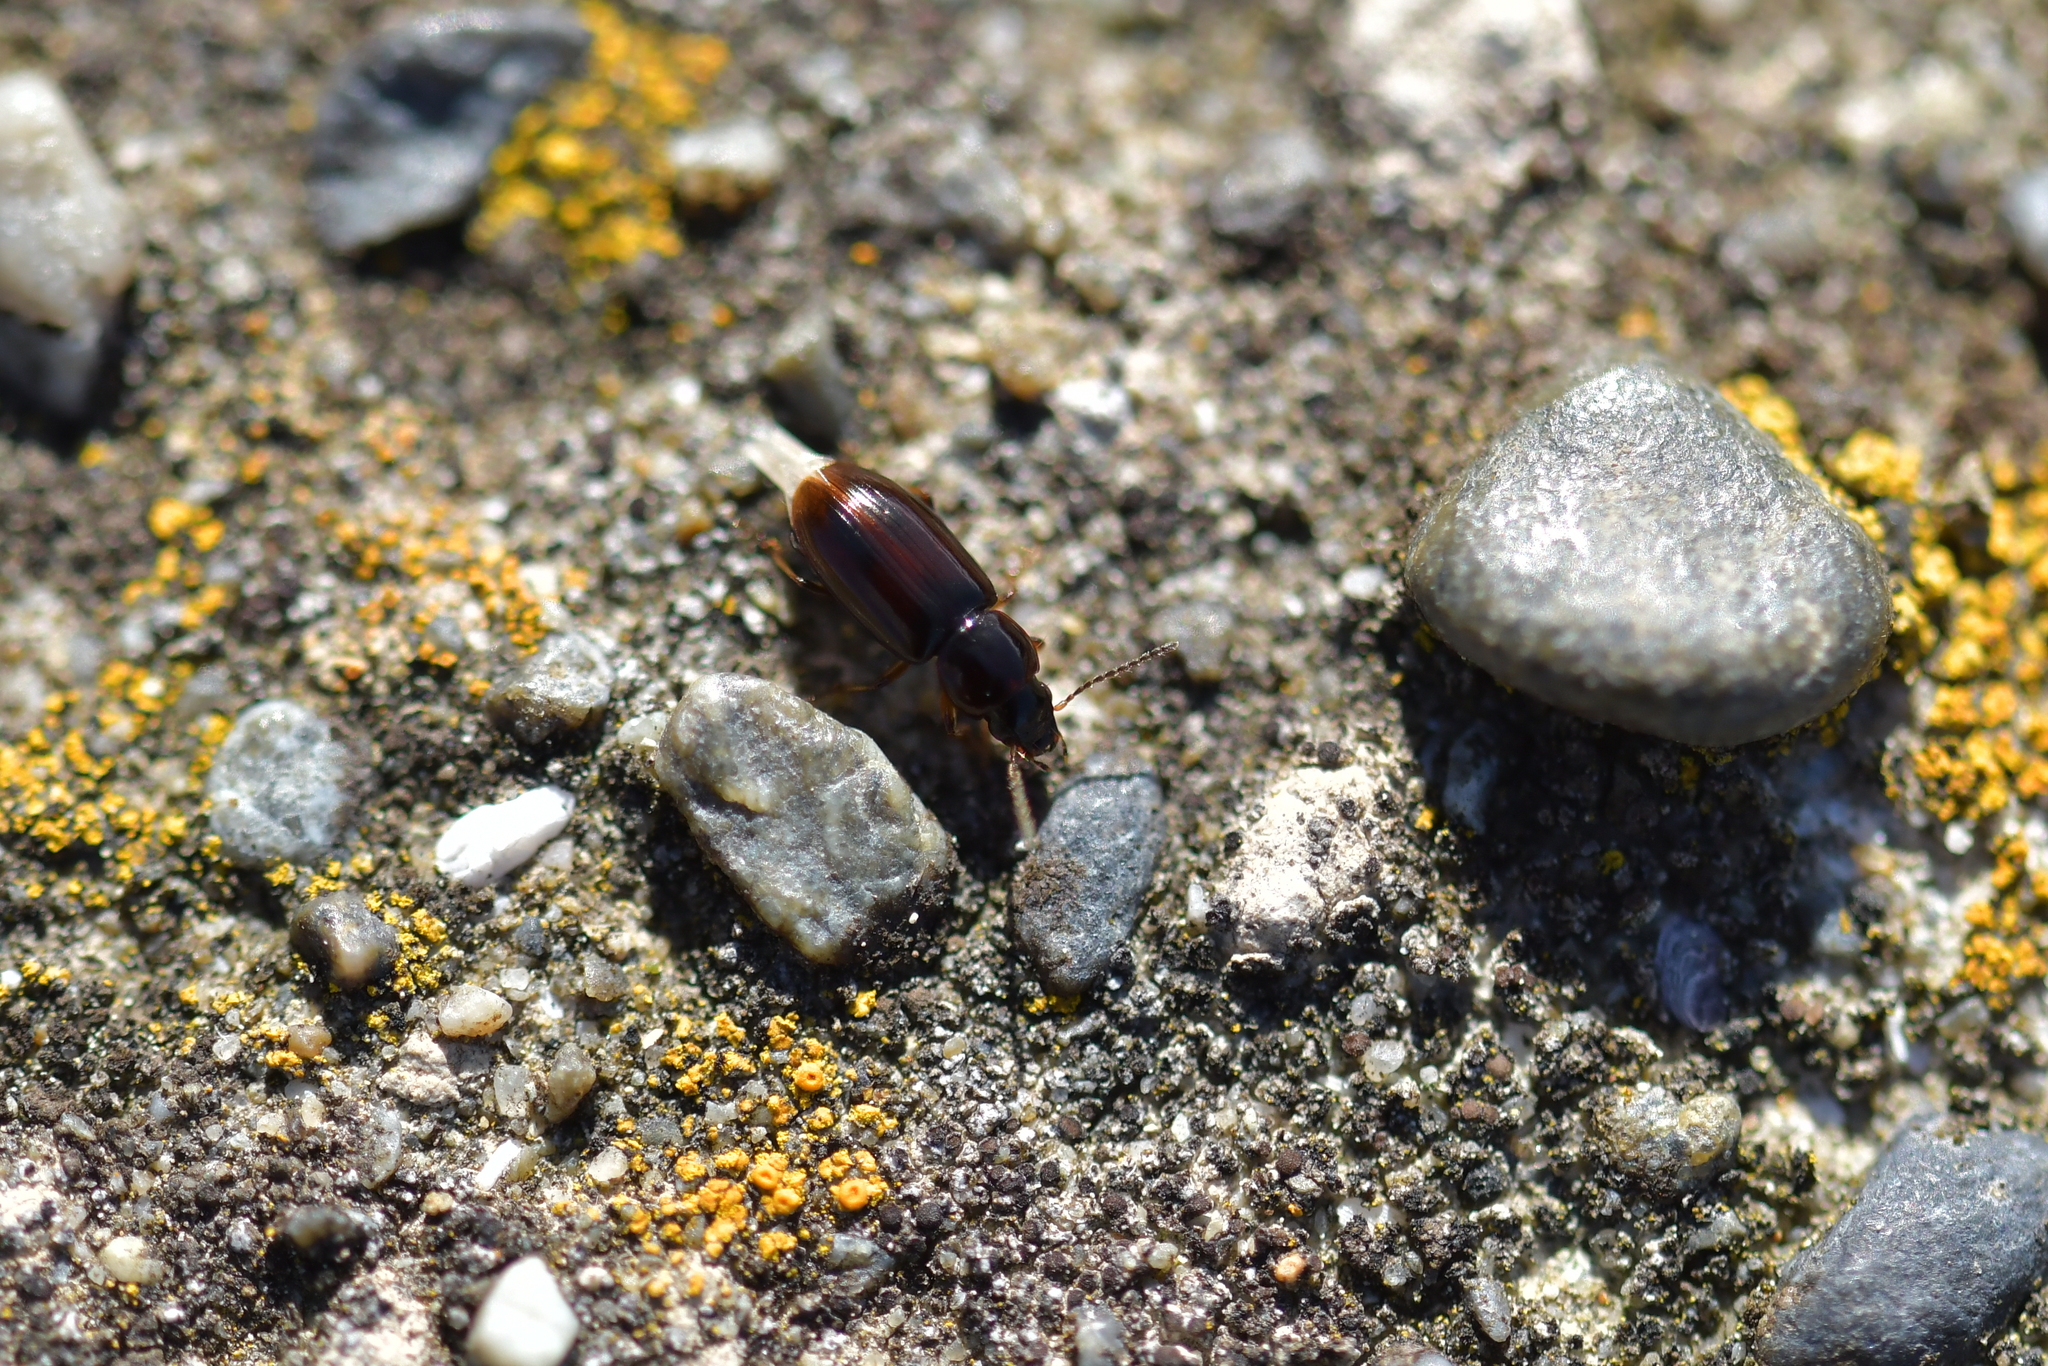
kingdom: Animalia
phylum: Arthropoda
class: Insecta
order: Coleoptera
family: Carabidae
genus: Haplanister
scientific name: Haplanister crypticus
